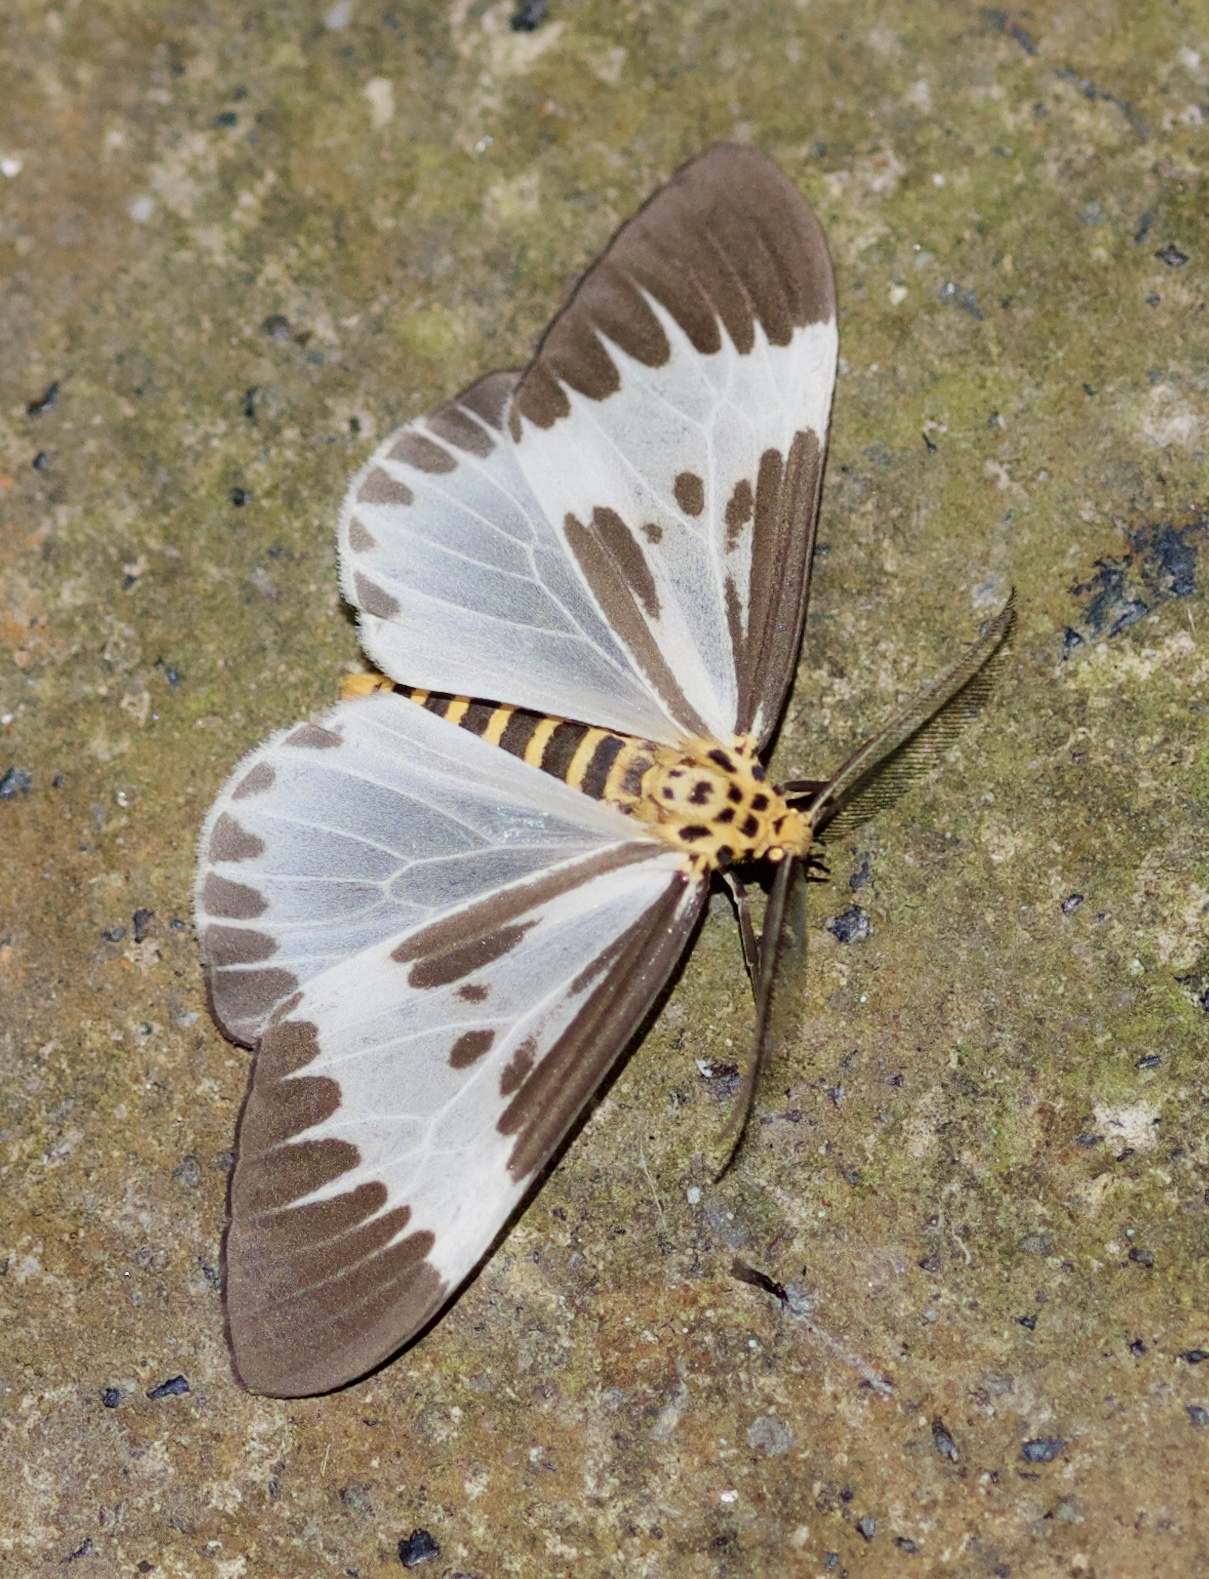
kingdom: Animalia
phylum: Arthropoda
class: Insecta
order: Lepidoptera
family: Erebidae
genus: Nyctemera
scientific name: Nyctemera kinabaluensis
